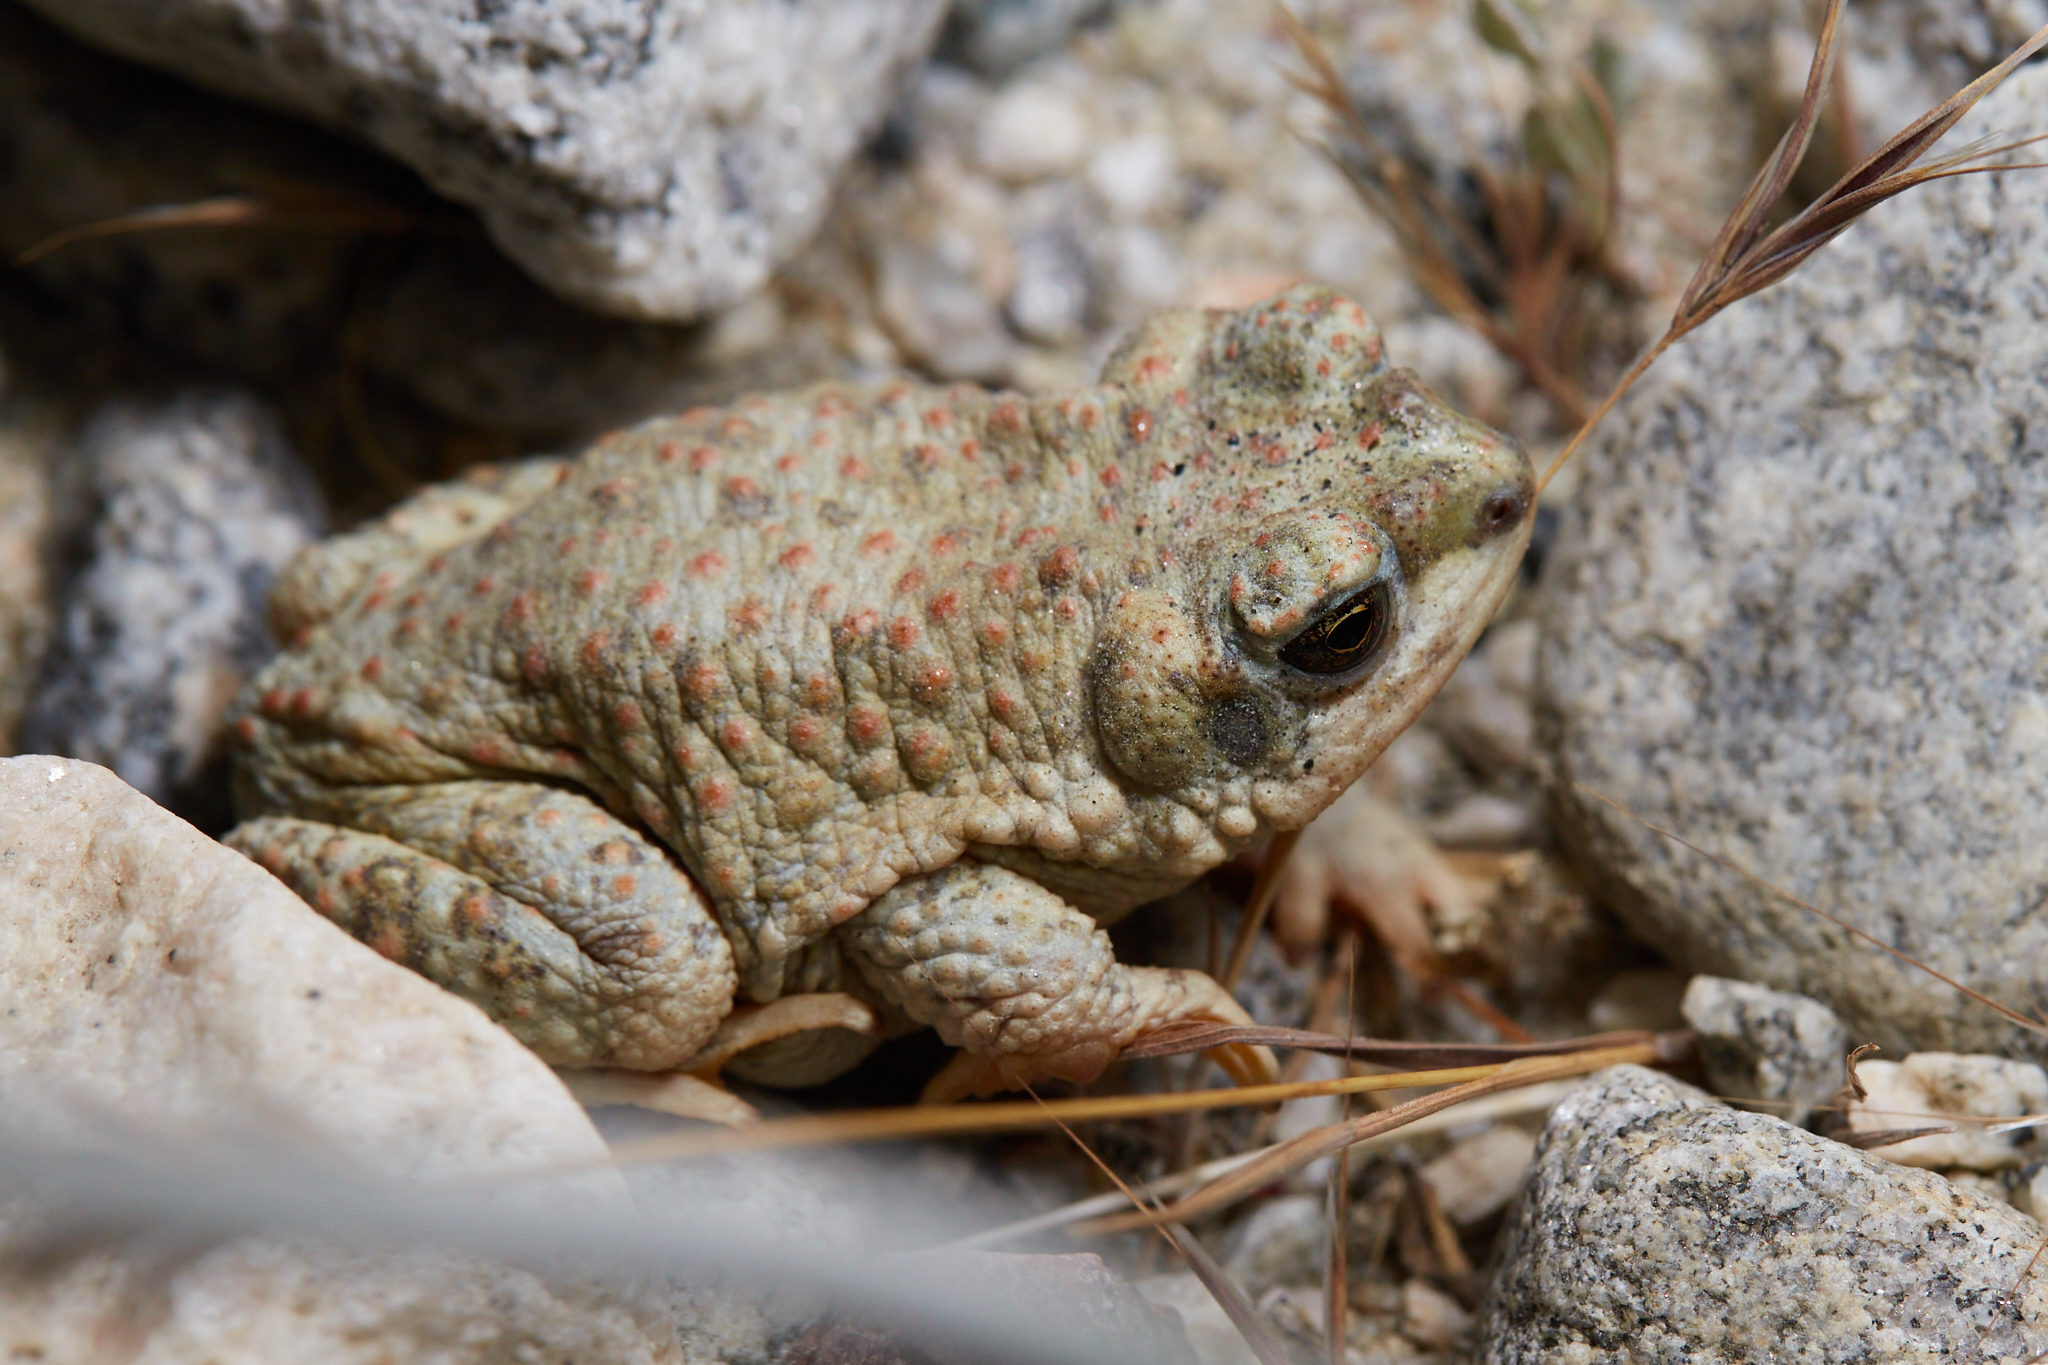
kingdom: Animalia
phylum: Chordata
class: Amphibia
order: Anura
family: Bufonidae
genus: Anaxyrus
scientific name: Anaxyrus punctatus
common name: Red-spotted toad
